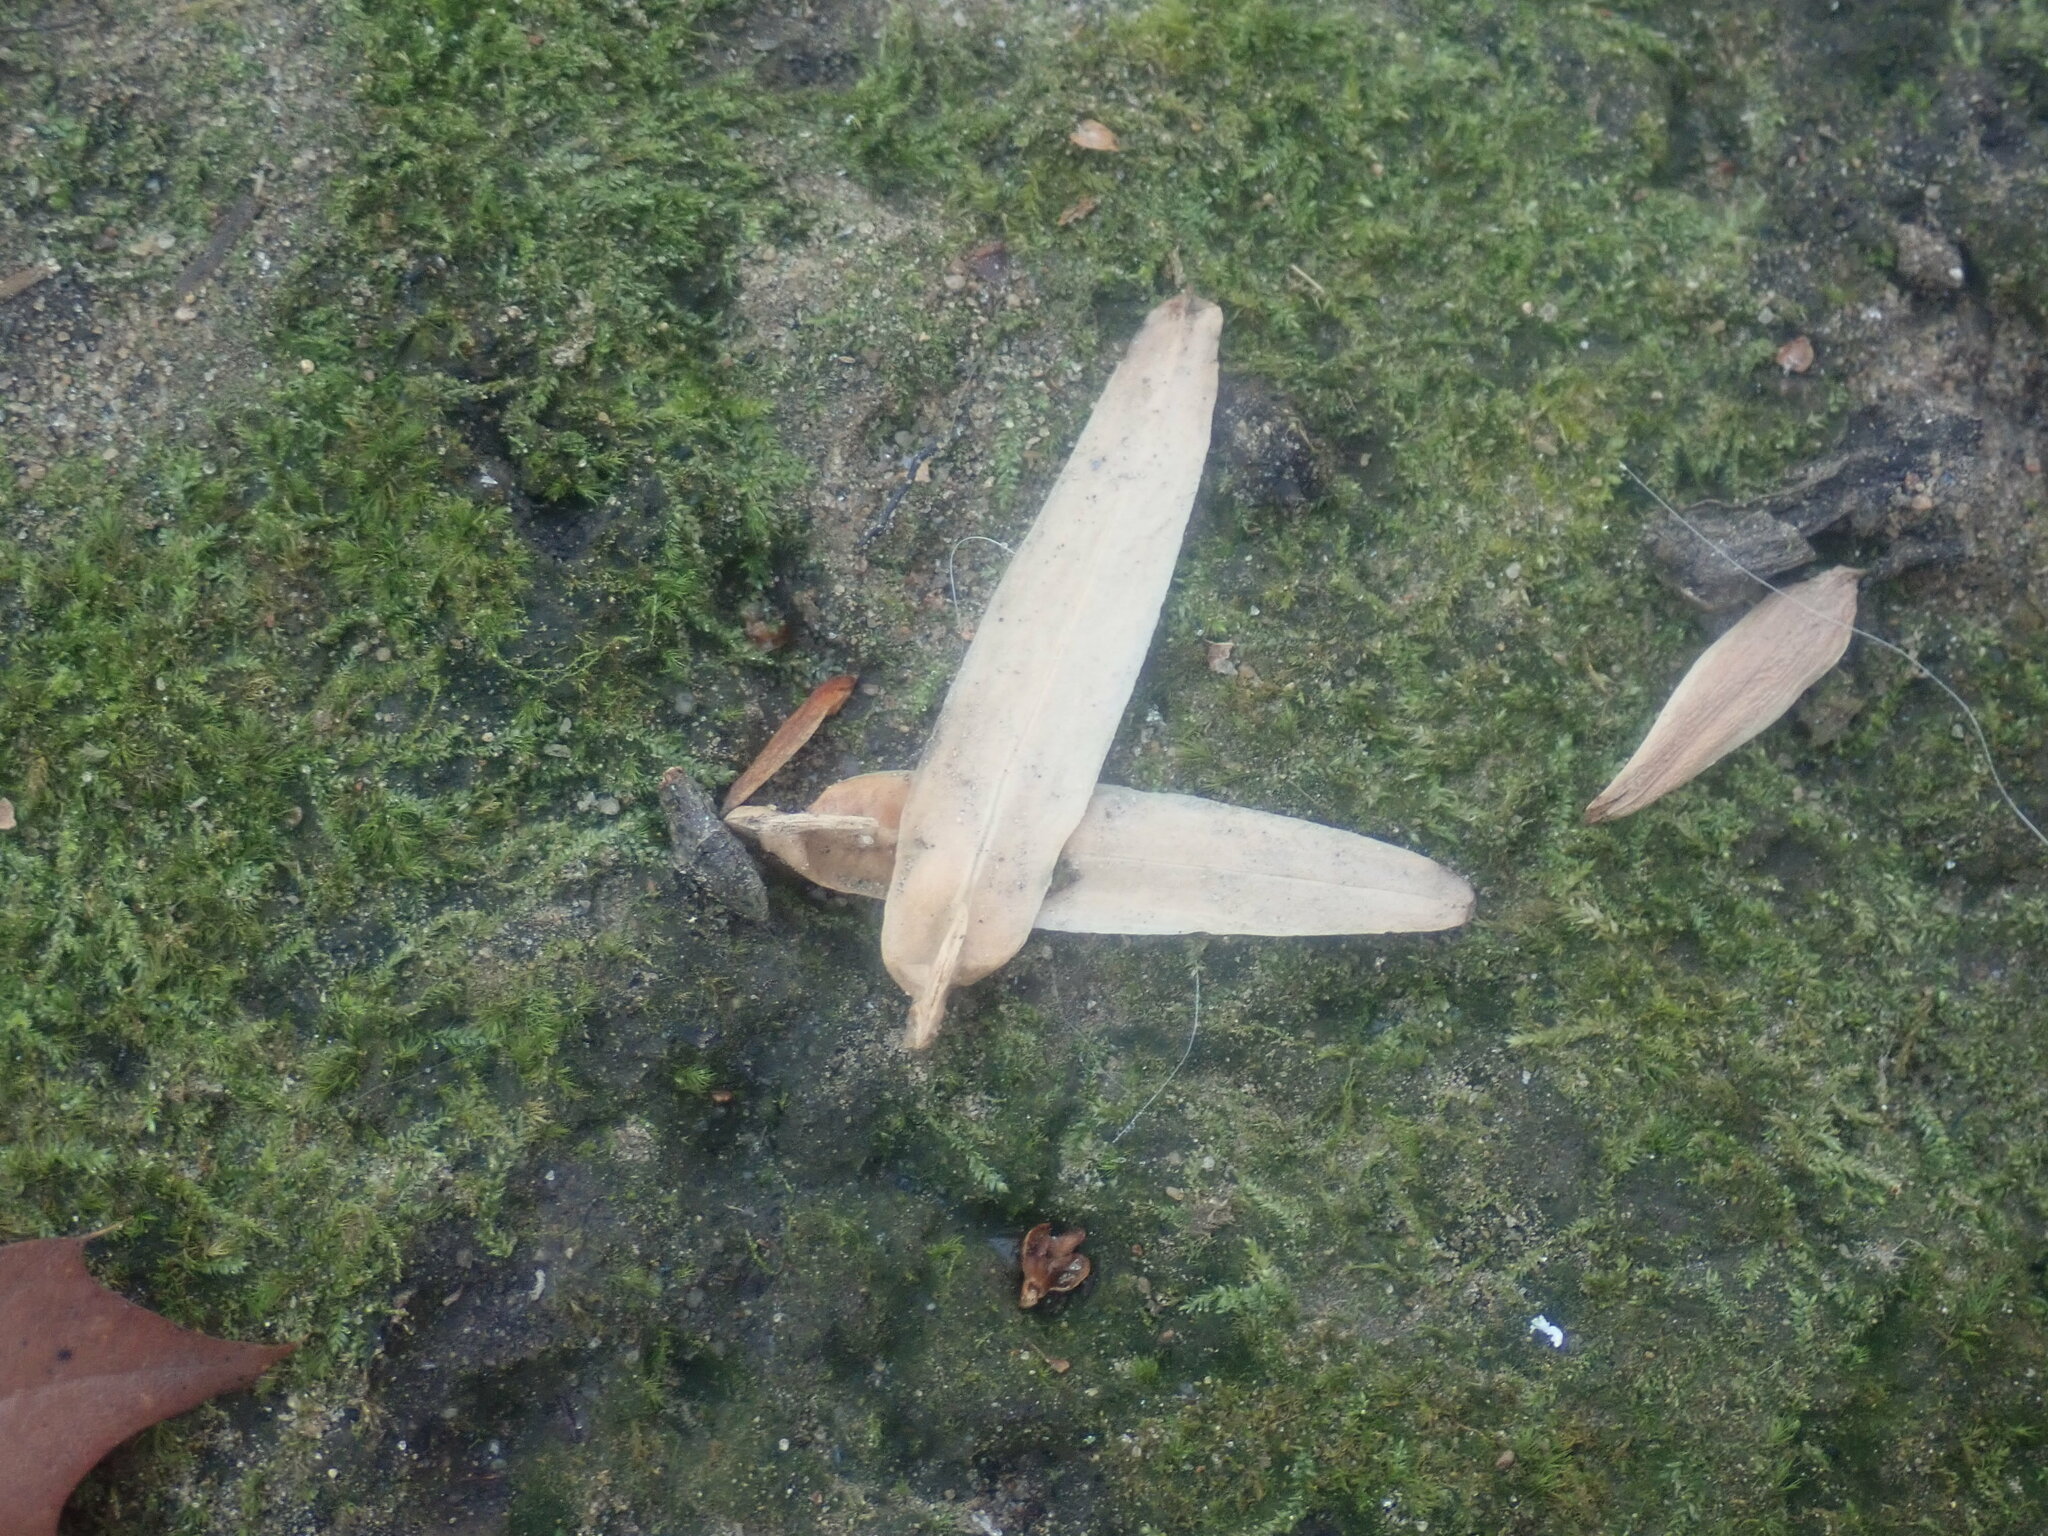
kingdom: Plantae
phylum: Tracheophyta
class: Magnoliopsida
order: Magnoliales
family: Magnoliaceae
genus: Liriodendron
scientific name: Liriodendron tulipifera
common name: Tulip tree
